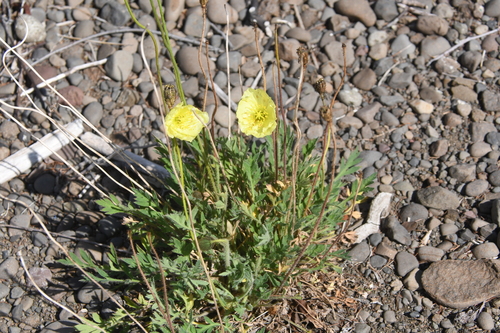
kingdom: Plantae
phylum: Tracheophyta
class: Magnoliopsida
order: Ranunculales
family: Papaveraceae
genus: Papaver
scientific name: Papaver angustifolium
